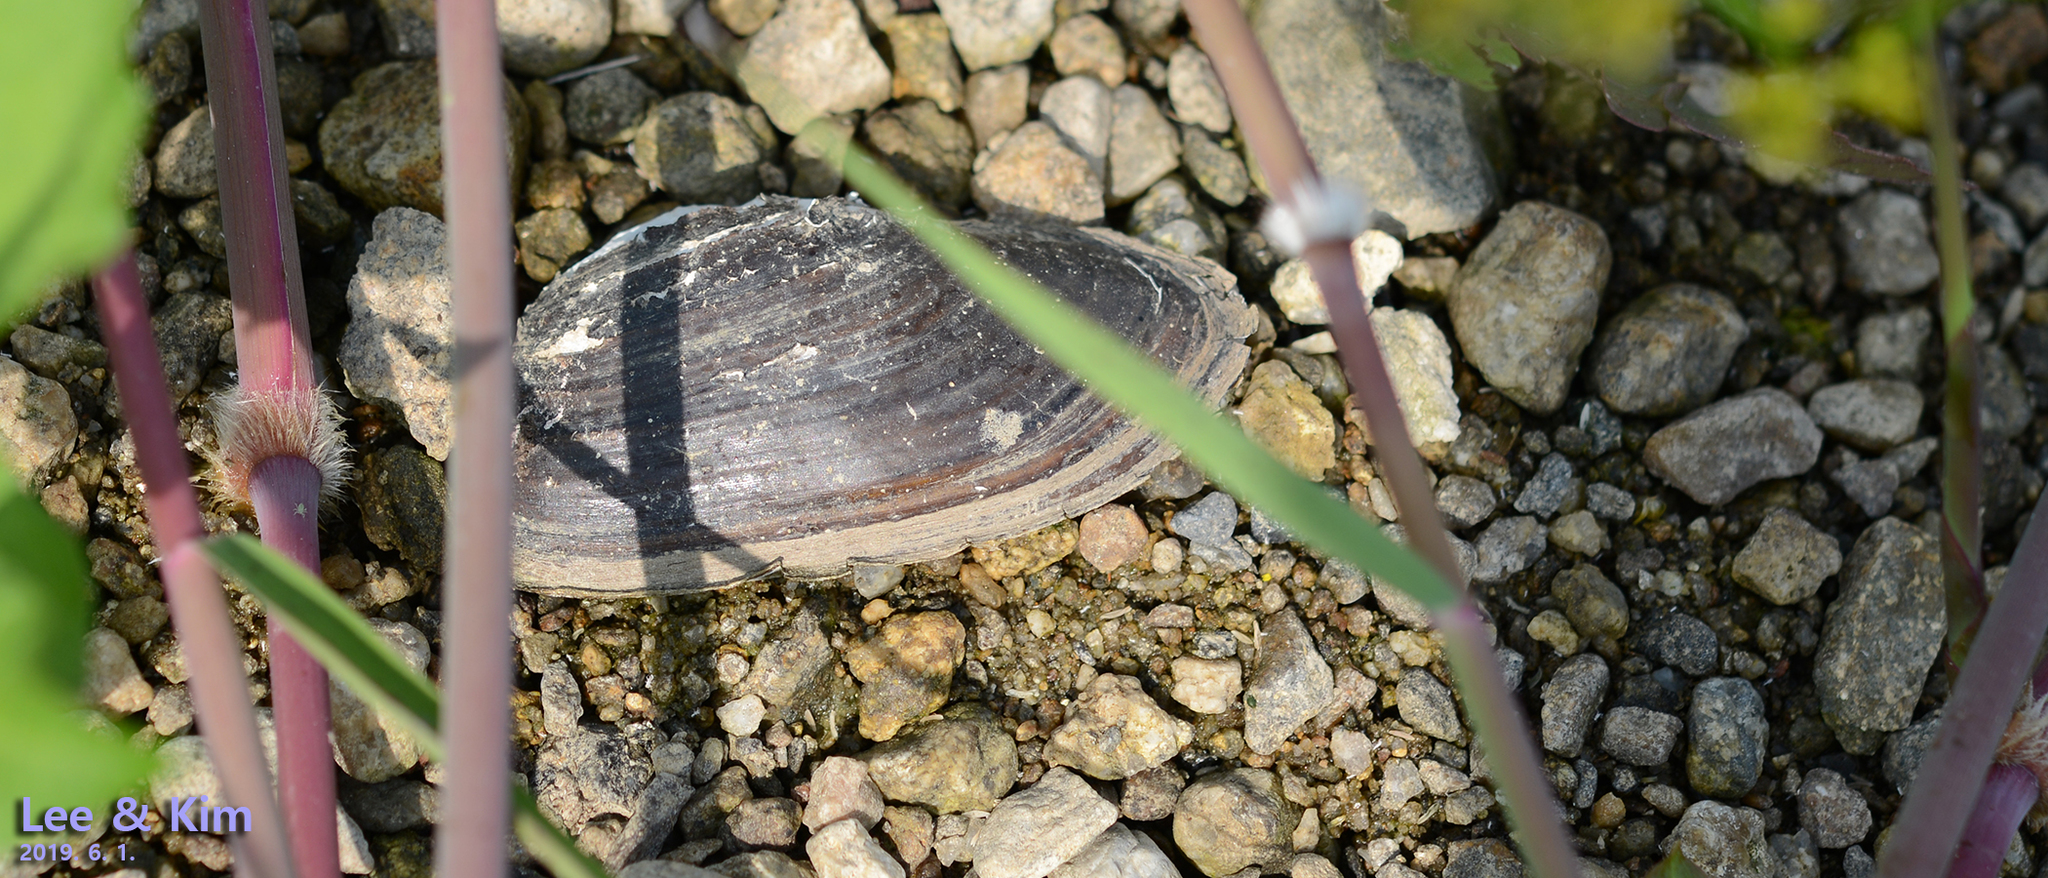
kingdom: Animalia
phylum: Mollusca
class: Bivalvia
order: Unionida
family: Unionidae
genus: Nodularia
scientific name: Nodularia douglasiae
